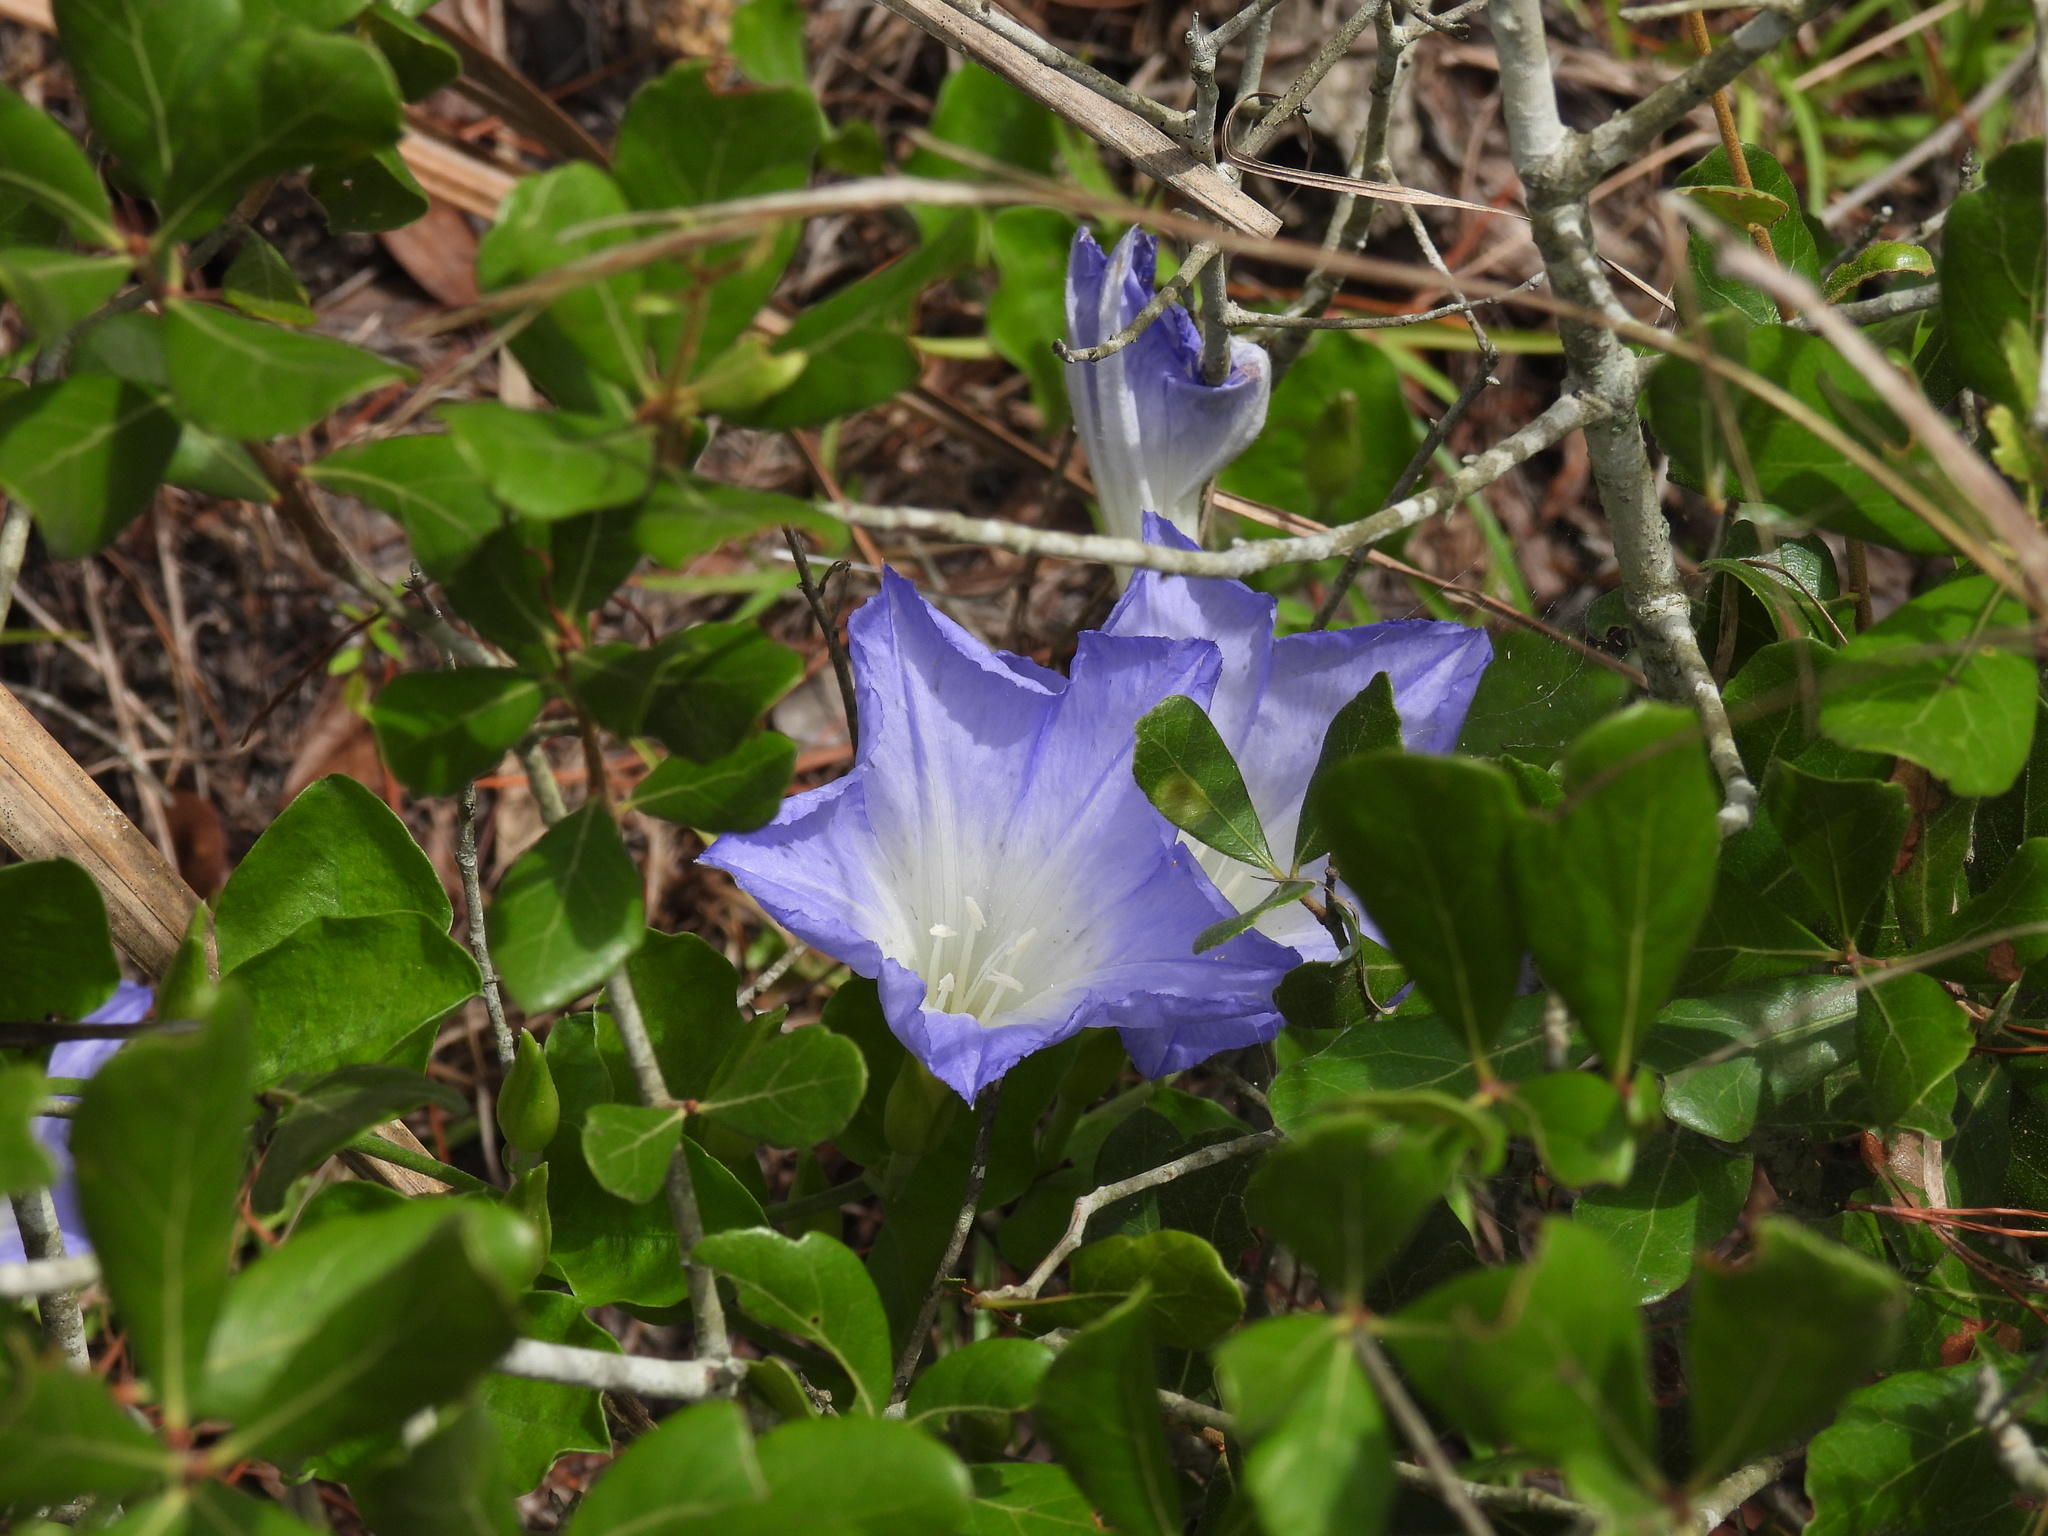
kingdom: Plantae
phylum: Tracheophyta
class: Magnoliopsida
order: Solanales
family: Convolvulaceae
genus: Bonamia
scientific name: Bonamia grandiflora
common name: Florida bonamia
